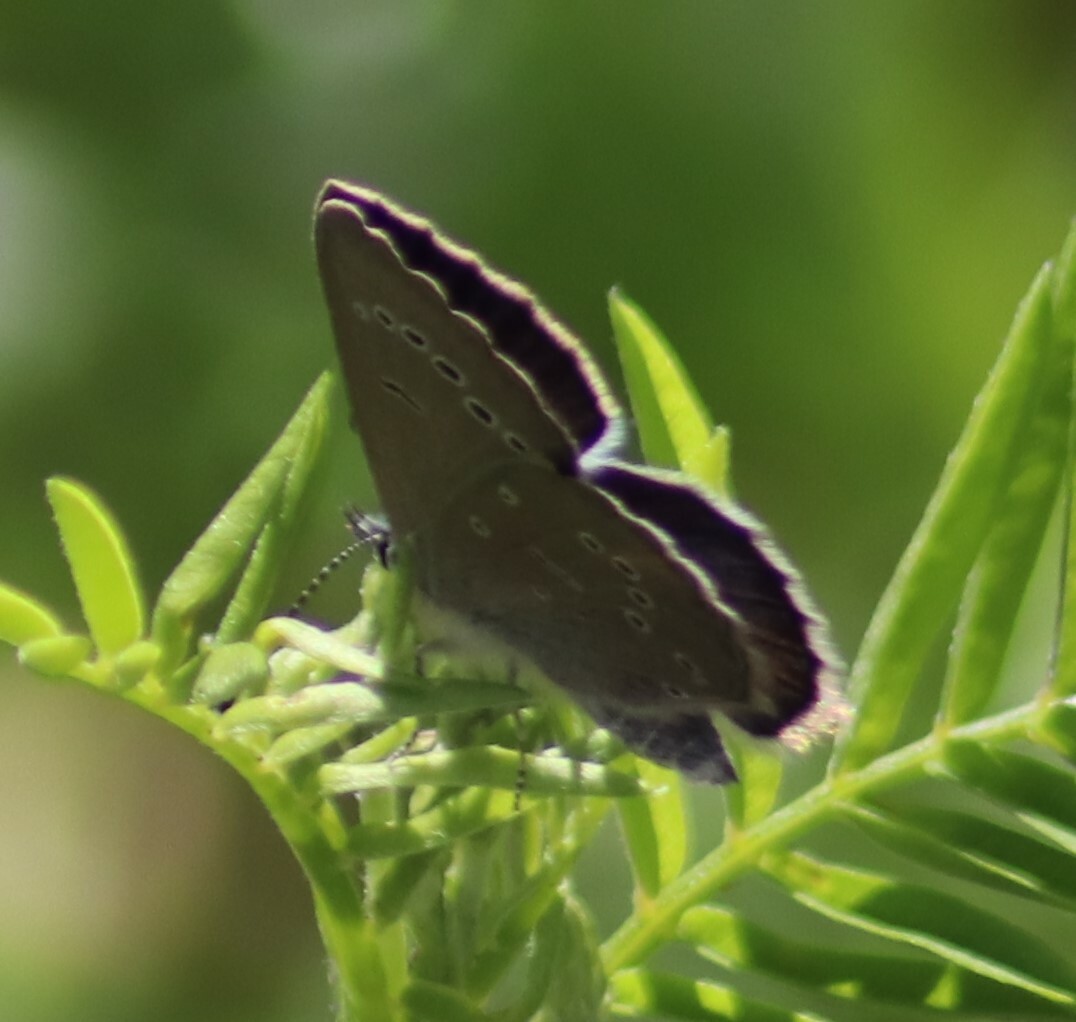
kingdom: Animalia
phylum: Arthropoda
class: Insecta
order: Lepidoptera
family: Lycaenidae
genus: Glaucopsyche
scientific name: Glaucopsyche lygdamus
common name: Silvery blue
